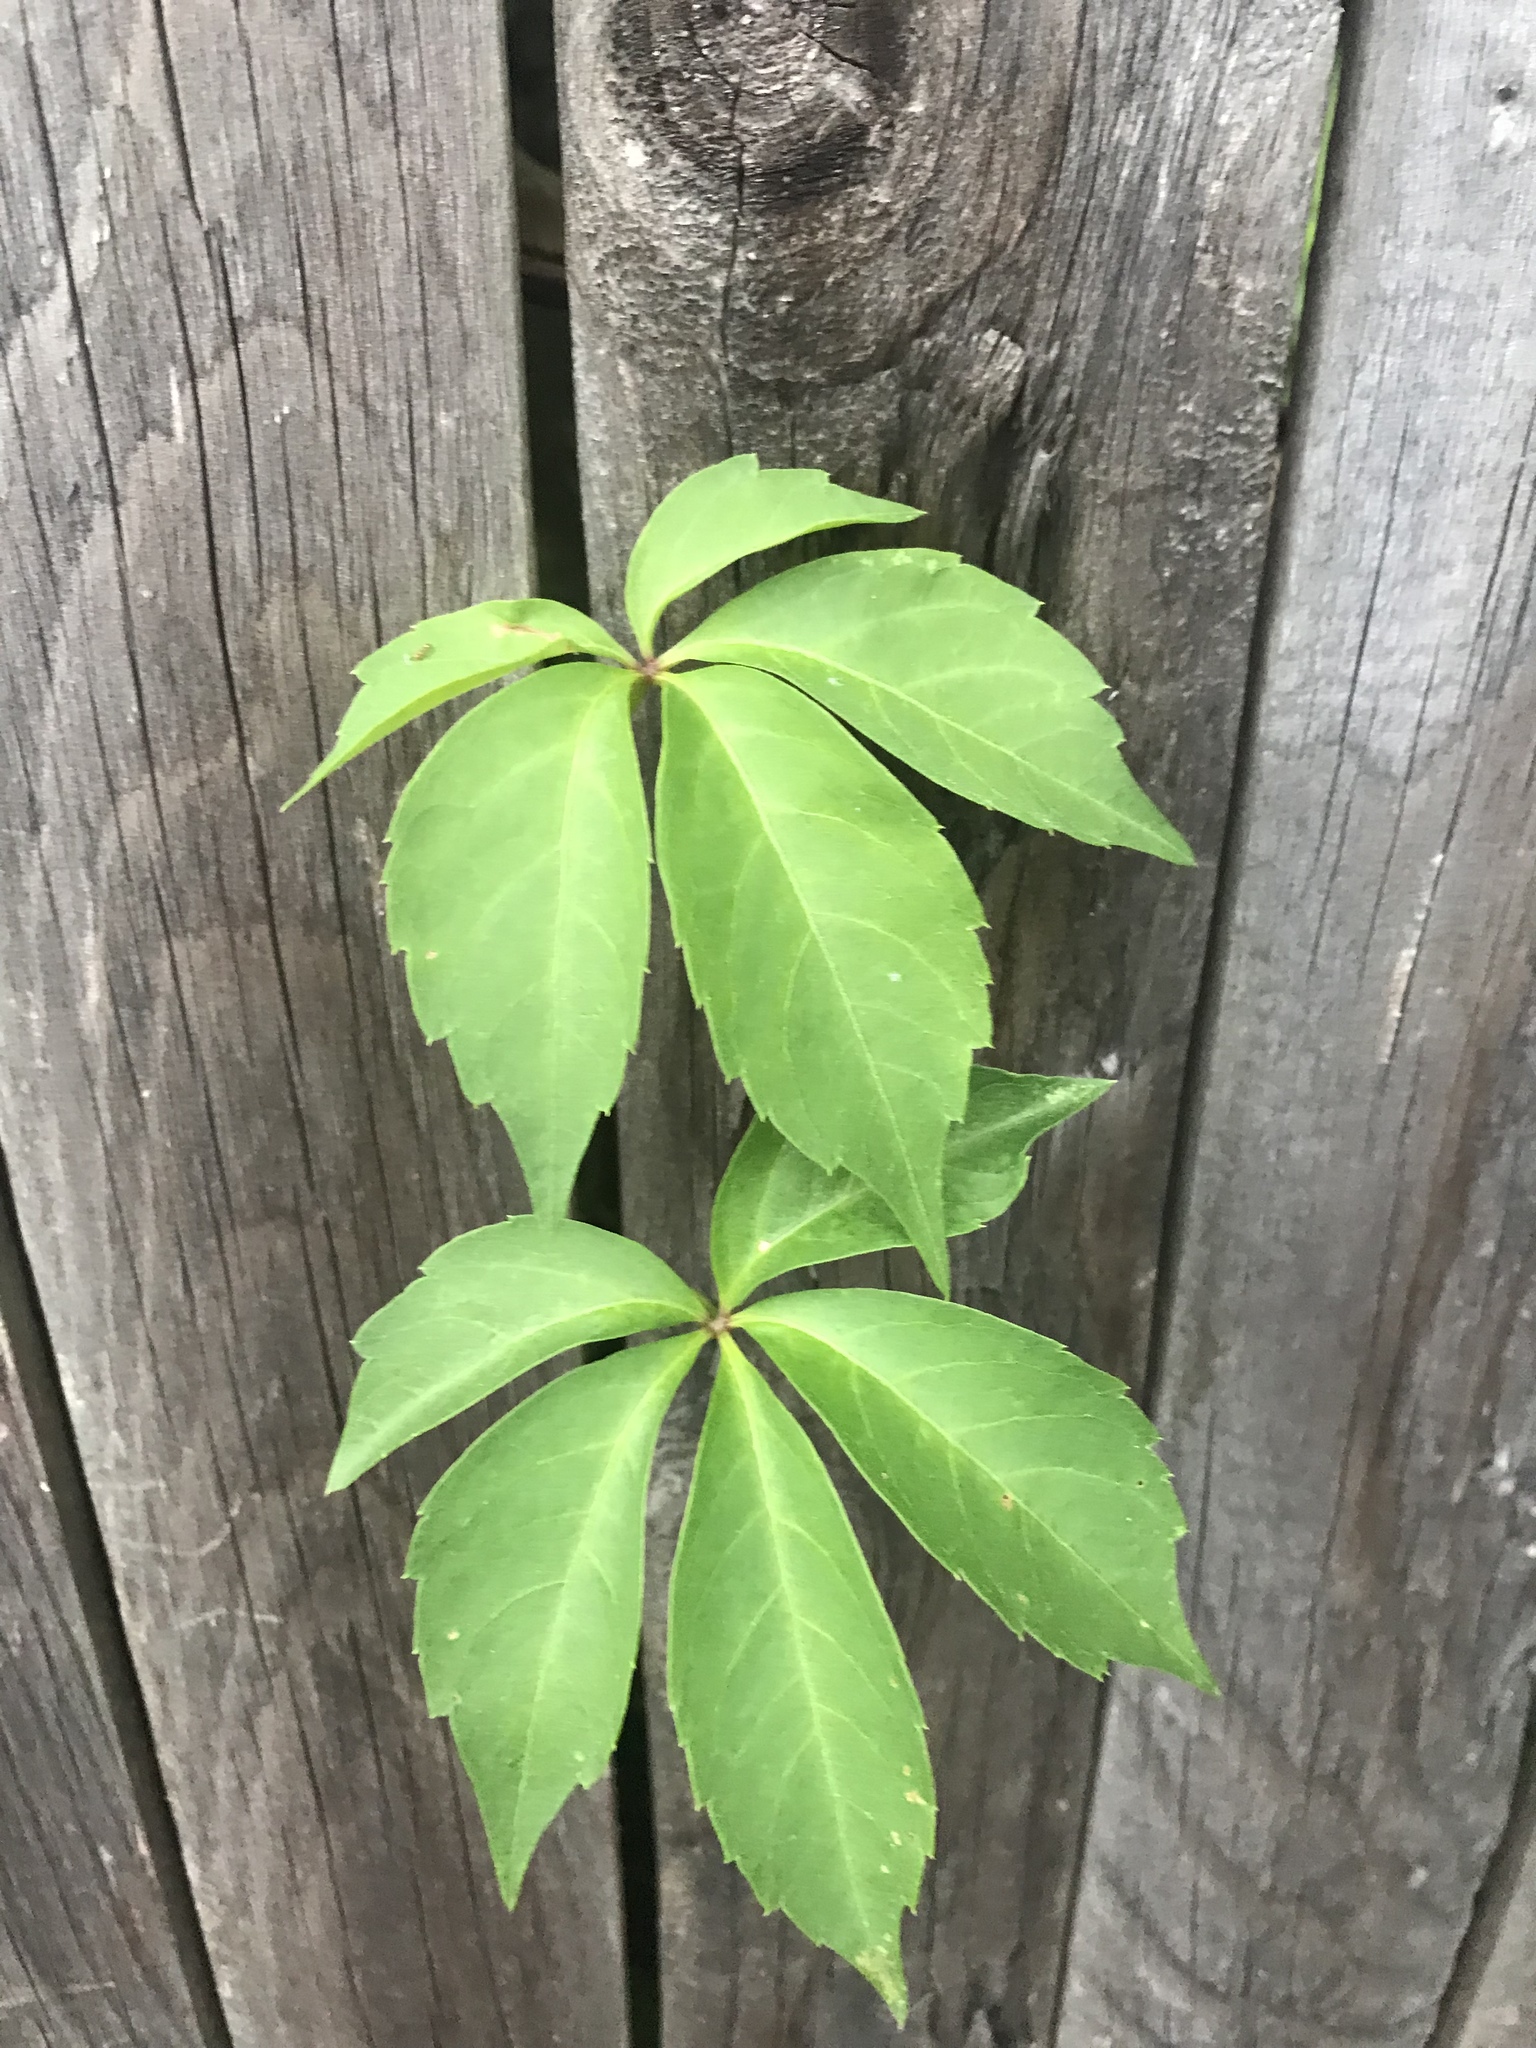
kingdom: Plantae
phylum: Tracheophyta
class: Magnoliopsida
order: Vitales
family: Vitaceae
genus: Parthenocissus
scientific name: Parthenocissus quinquefolia
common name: Virginia-creeper
